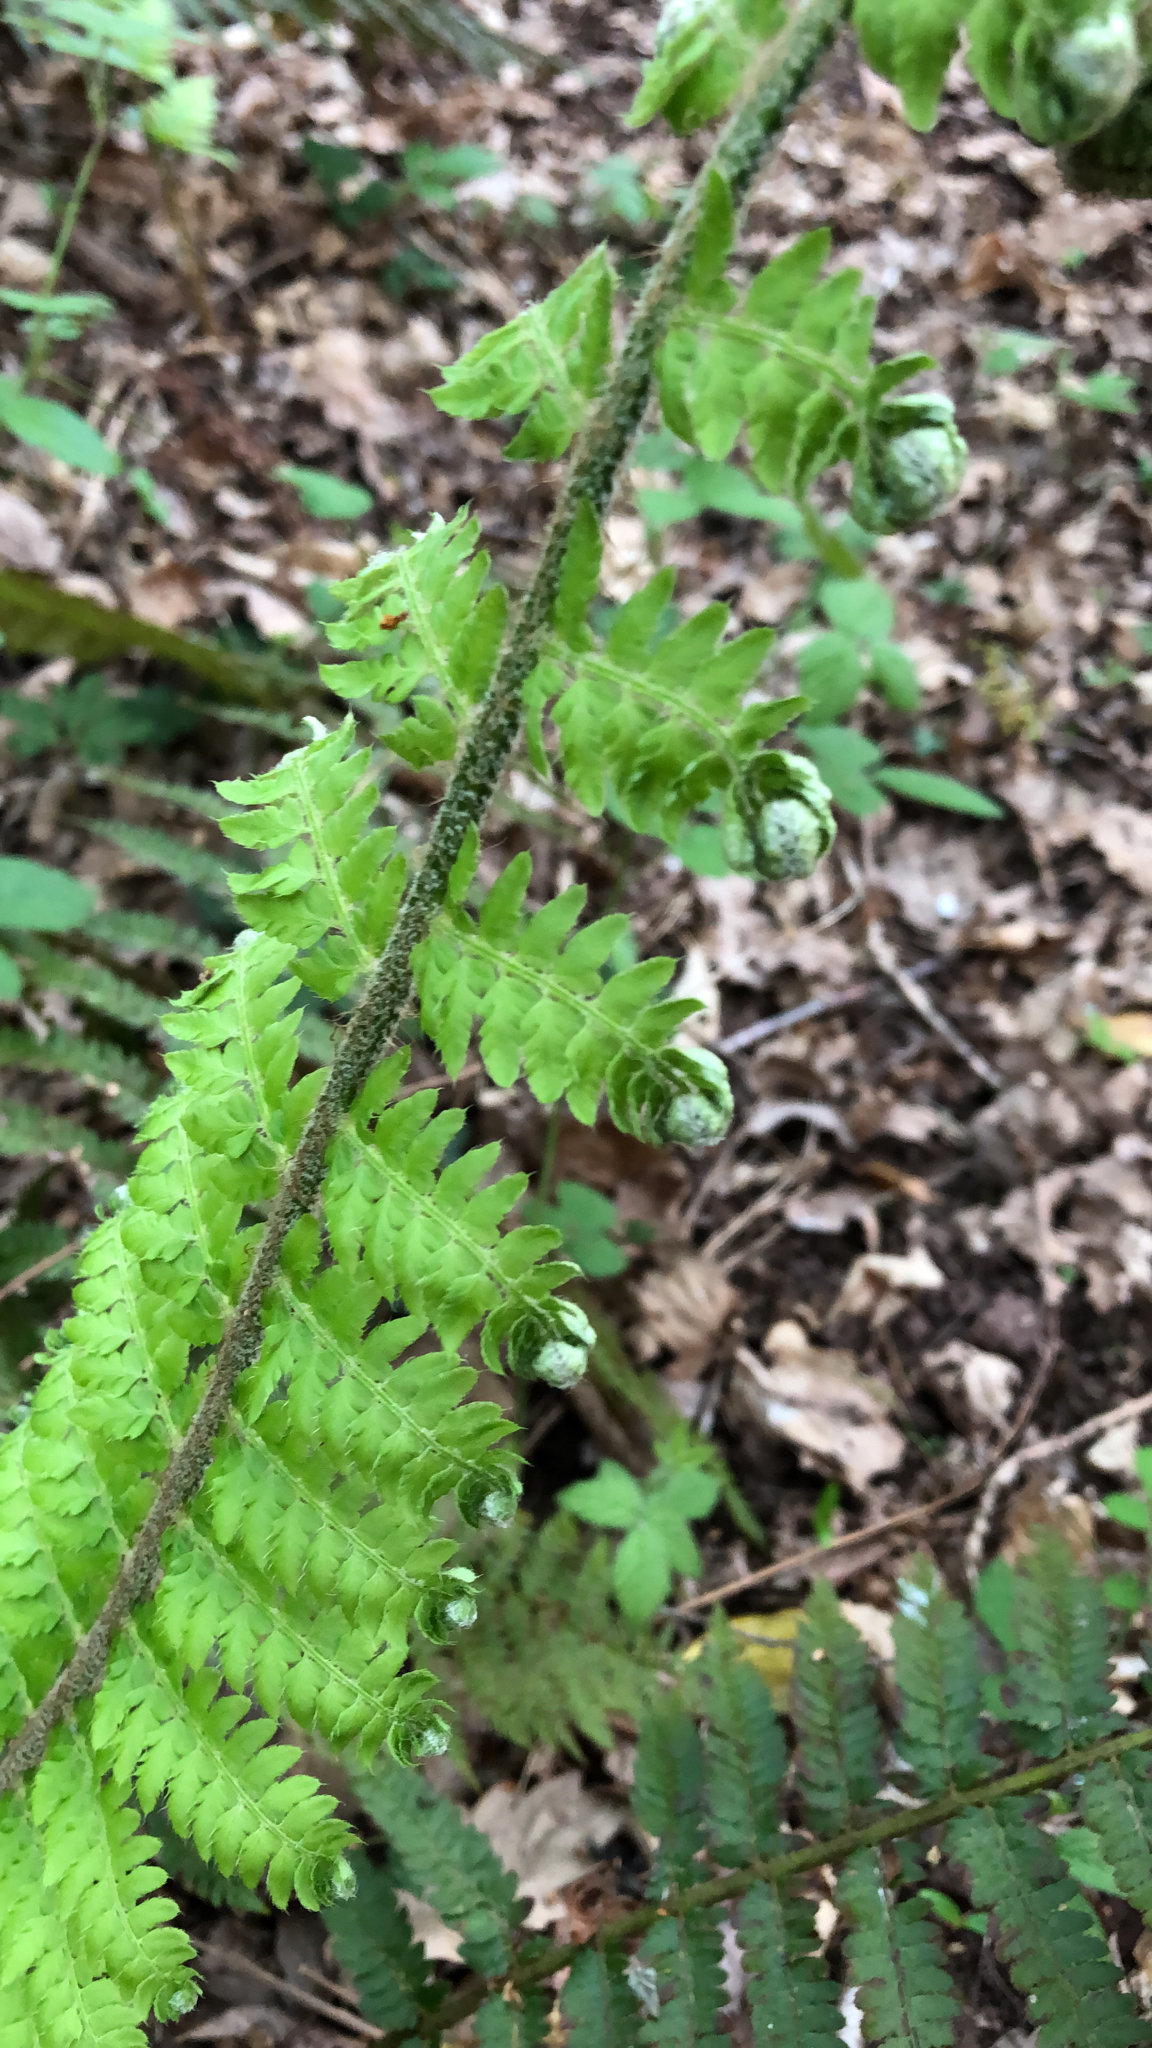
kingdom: Plantae
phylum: Tracheophyta
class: Polypodiopsida
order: Polypodiales
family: Dryopteridaceae
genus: Polystichum
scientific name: Polystichum setiferum
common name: Soft shield-fern
